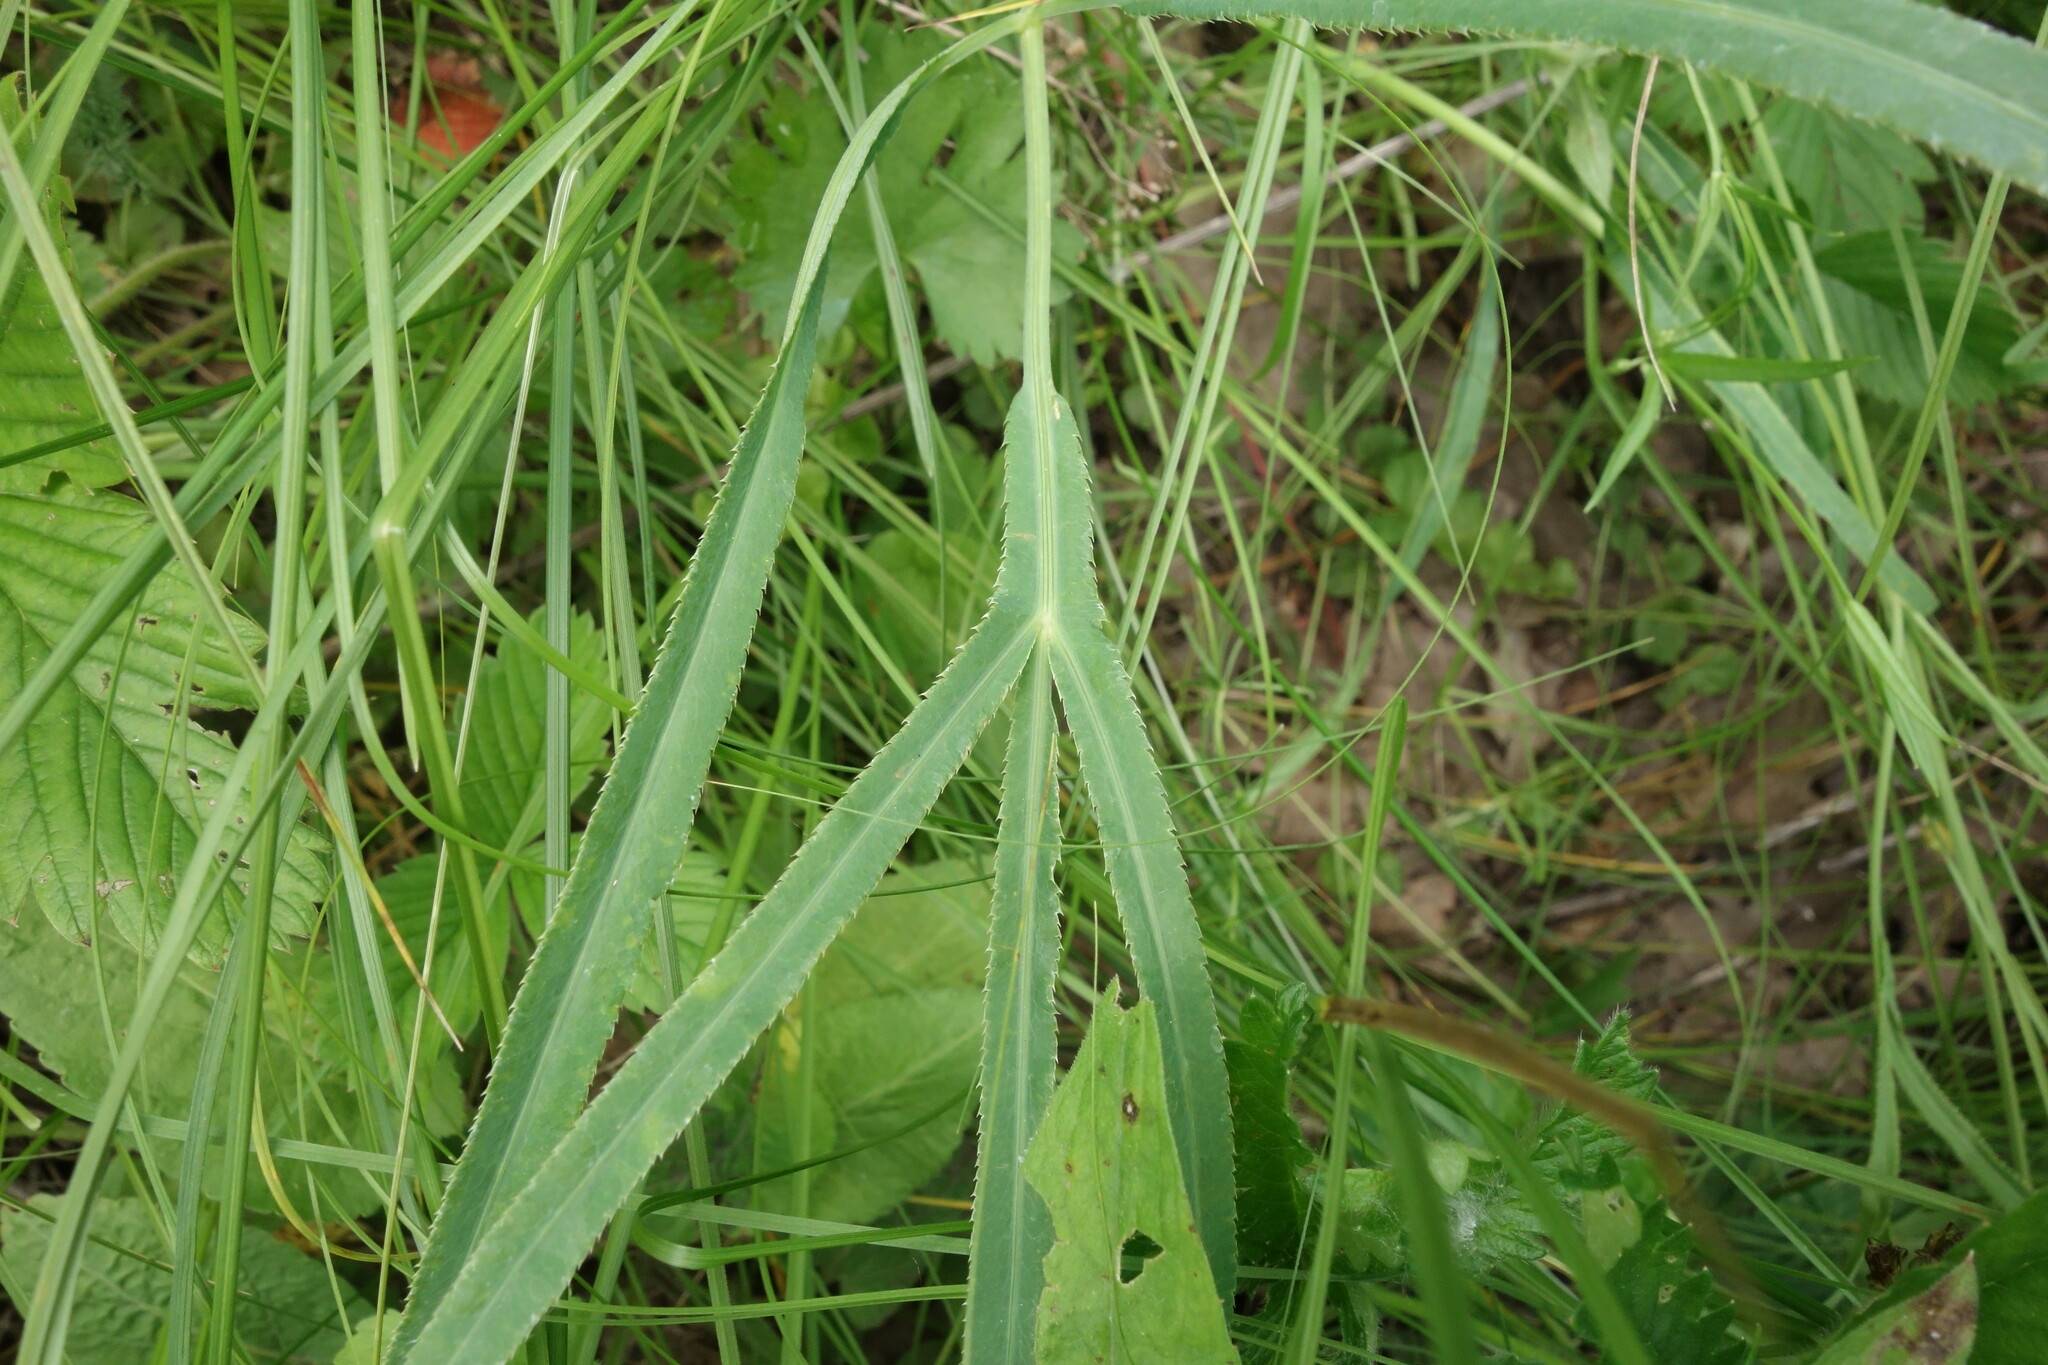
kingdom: Plantae
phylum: Tracheophyta
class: Magnoliopsida
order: Apiales
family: Apiaceae
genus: Falcaria
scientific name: Falcaria vulgaris
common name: Longleaf
